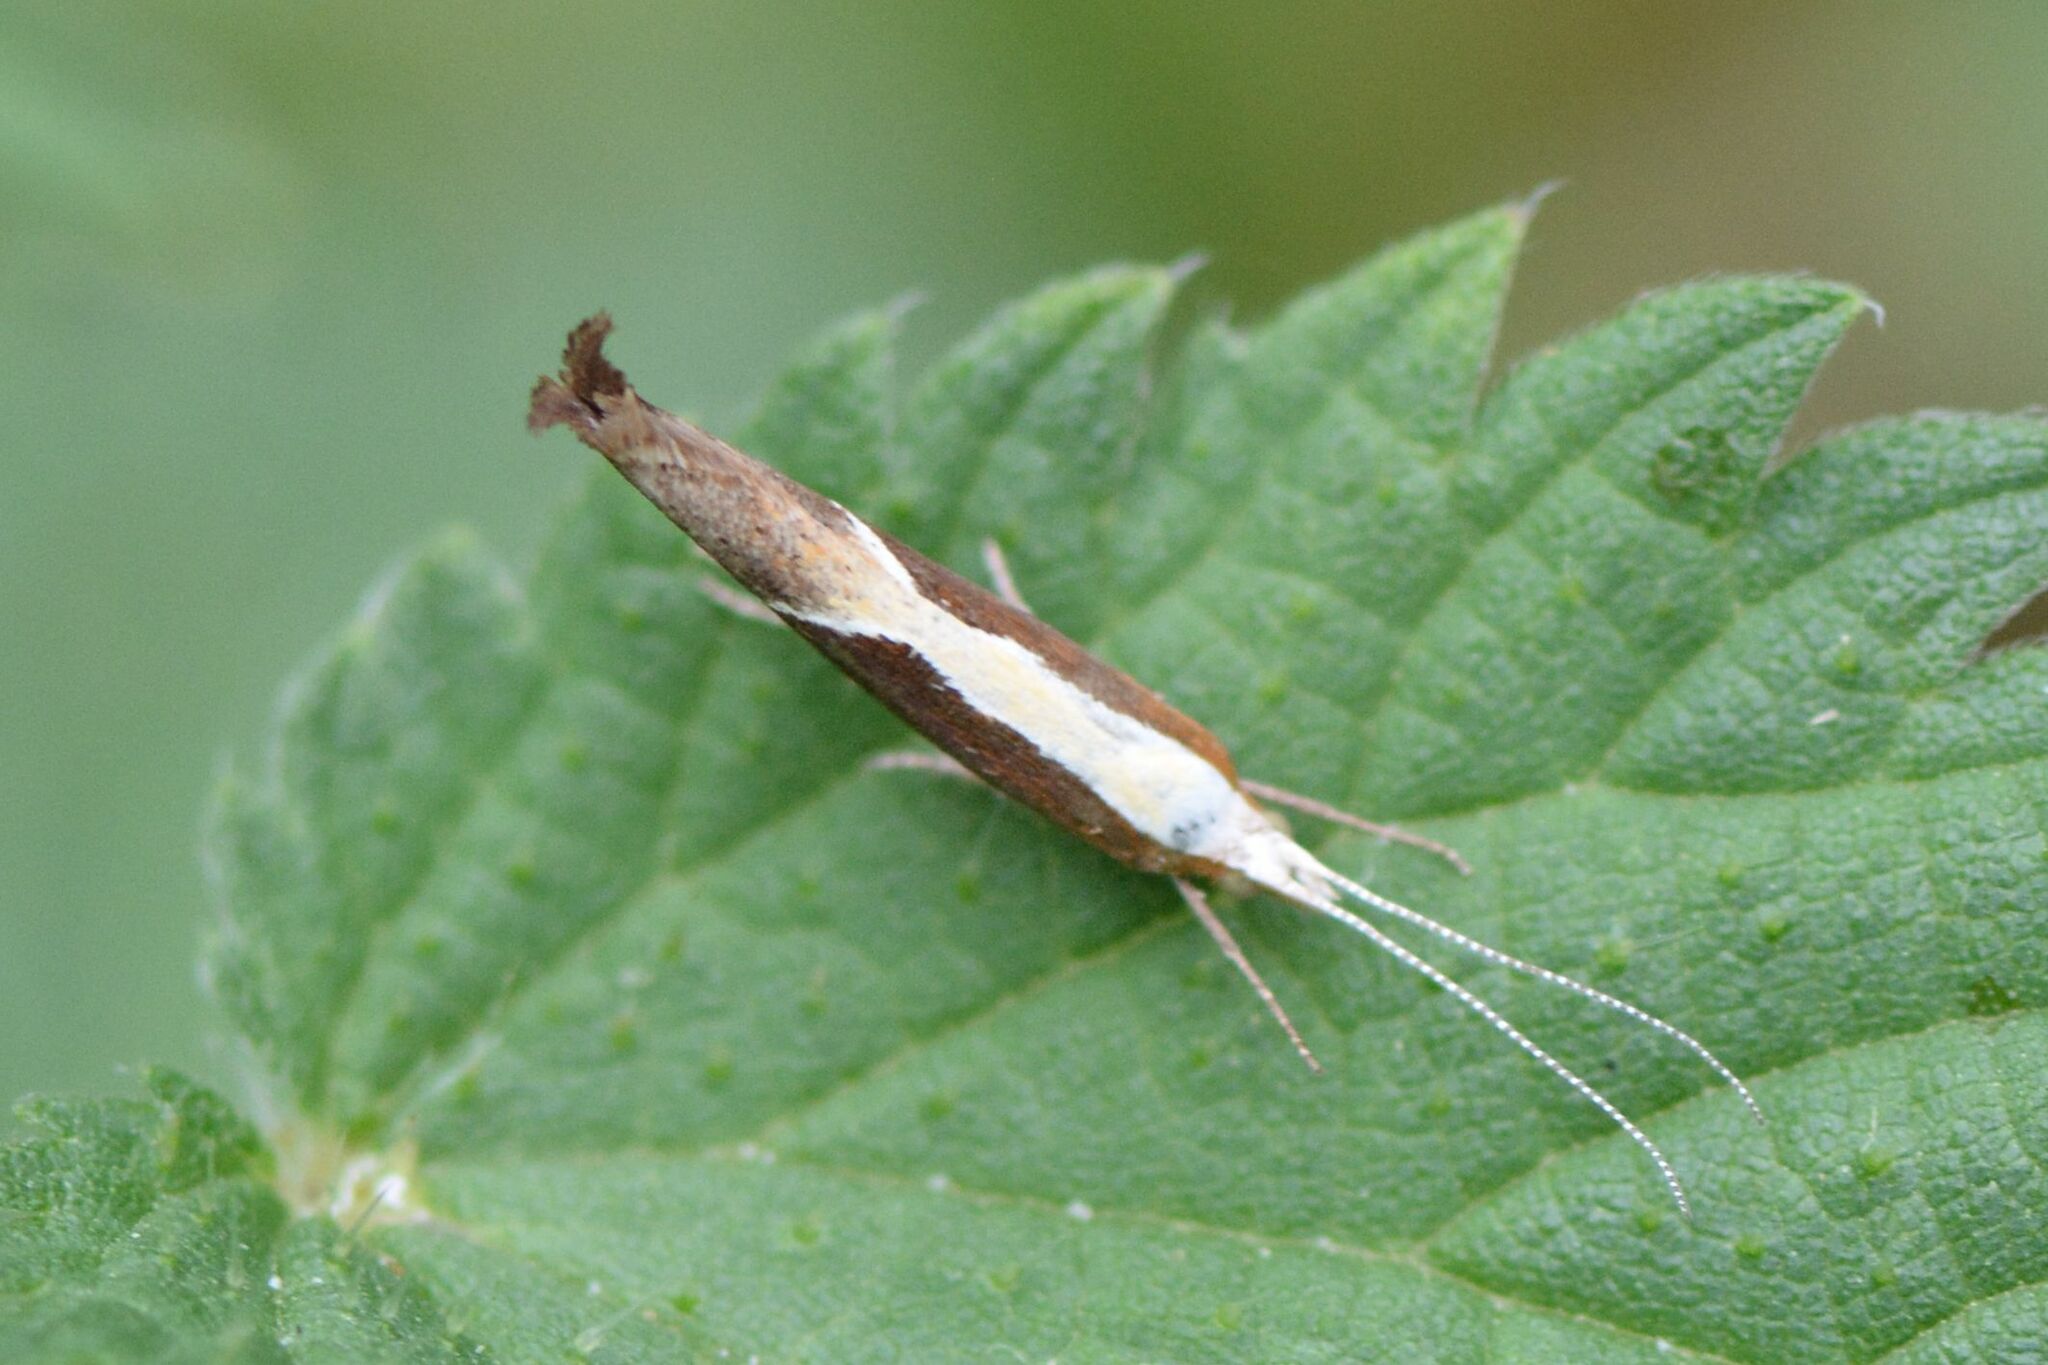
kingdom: Animalia
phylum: Arthropoda
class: Insecta
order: Lepidoptera
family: Ypsolophidae
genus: Ypsolopha
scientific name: Ypsolopha dentella
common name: Honeysuckle moth
